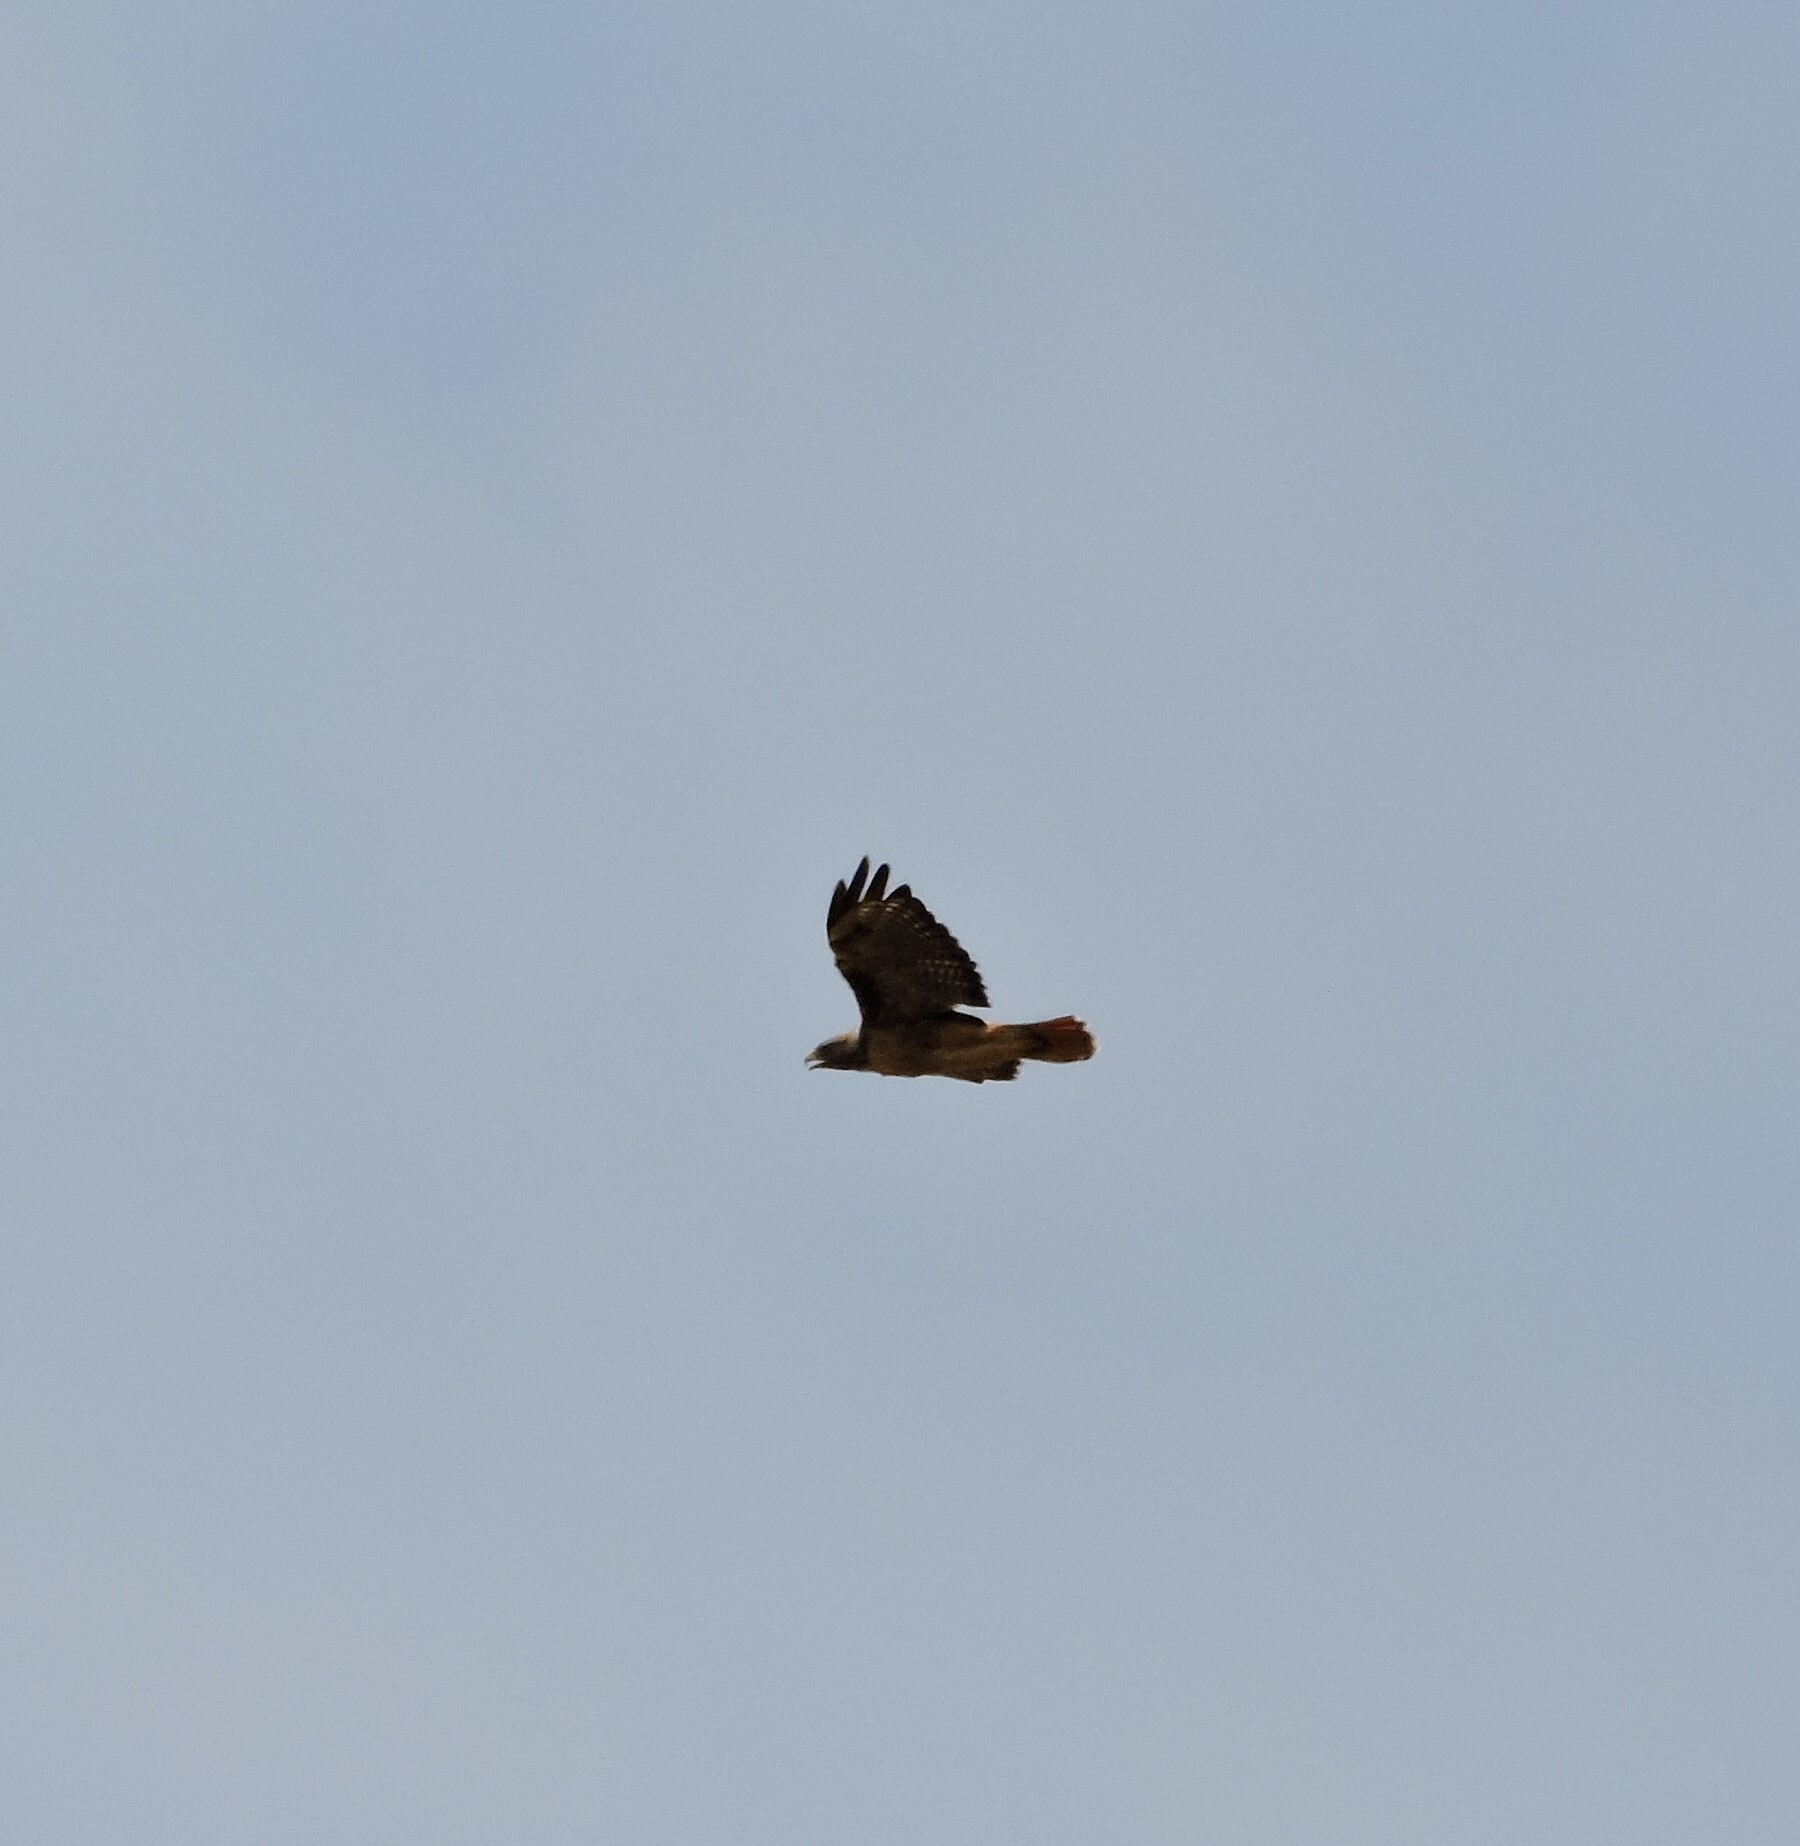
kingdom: Animalia
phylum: Chordata
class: Aves
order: Accipitriformes
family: Accipitridae
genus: Buteo
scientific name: Buteo jamaicensis
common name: Red-tailed hawk
